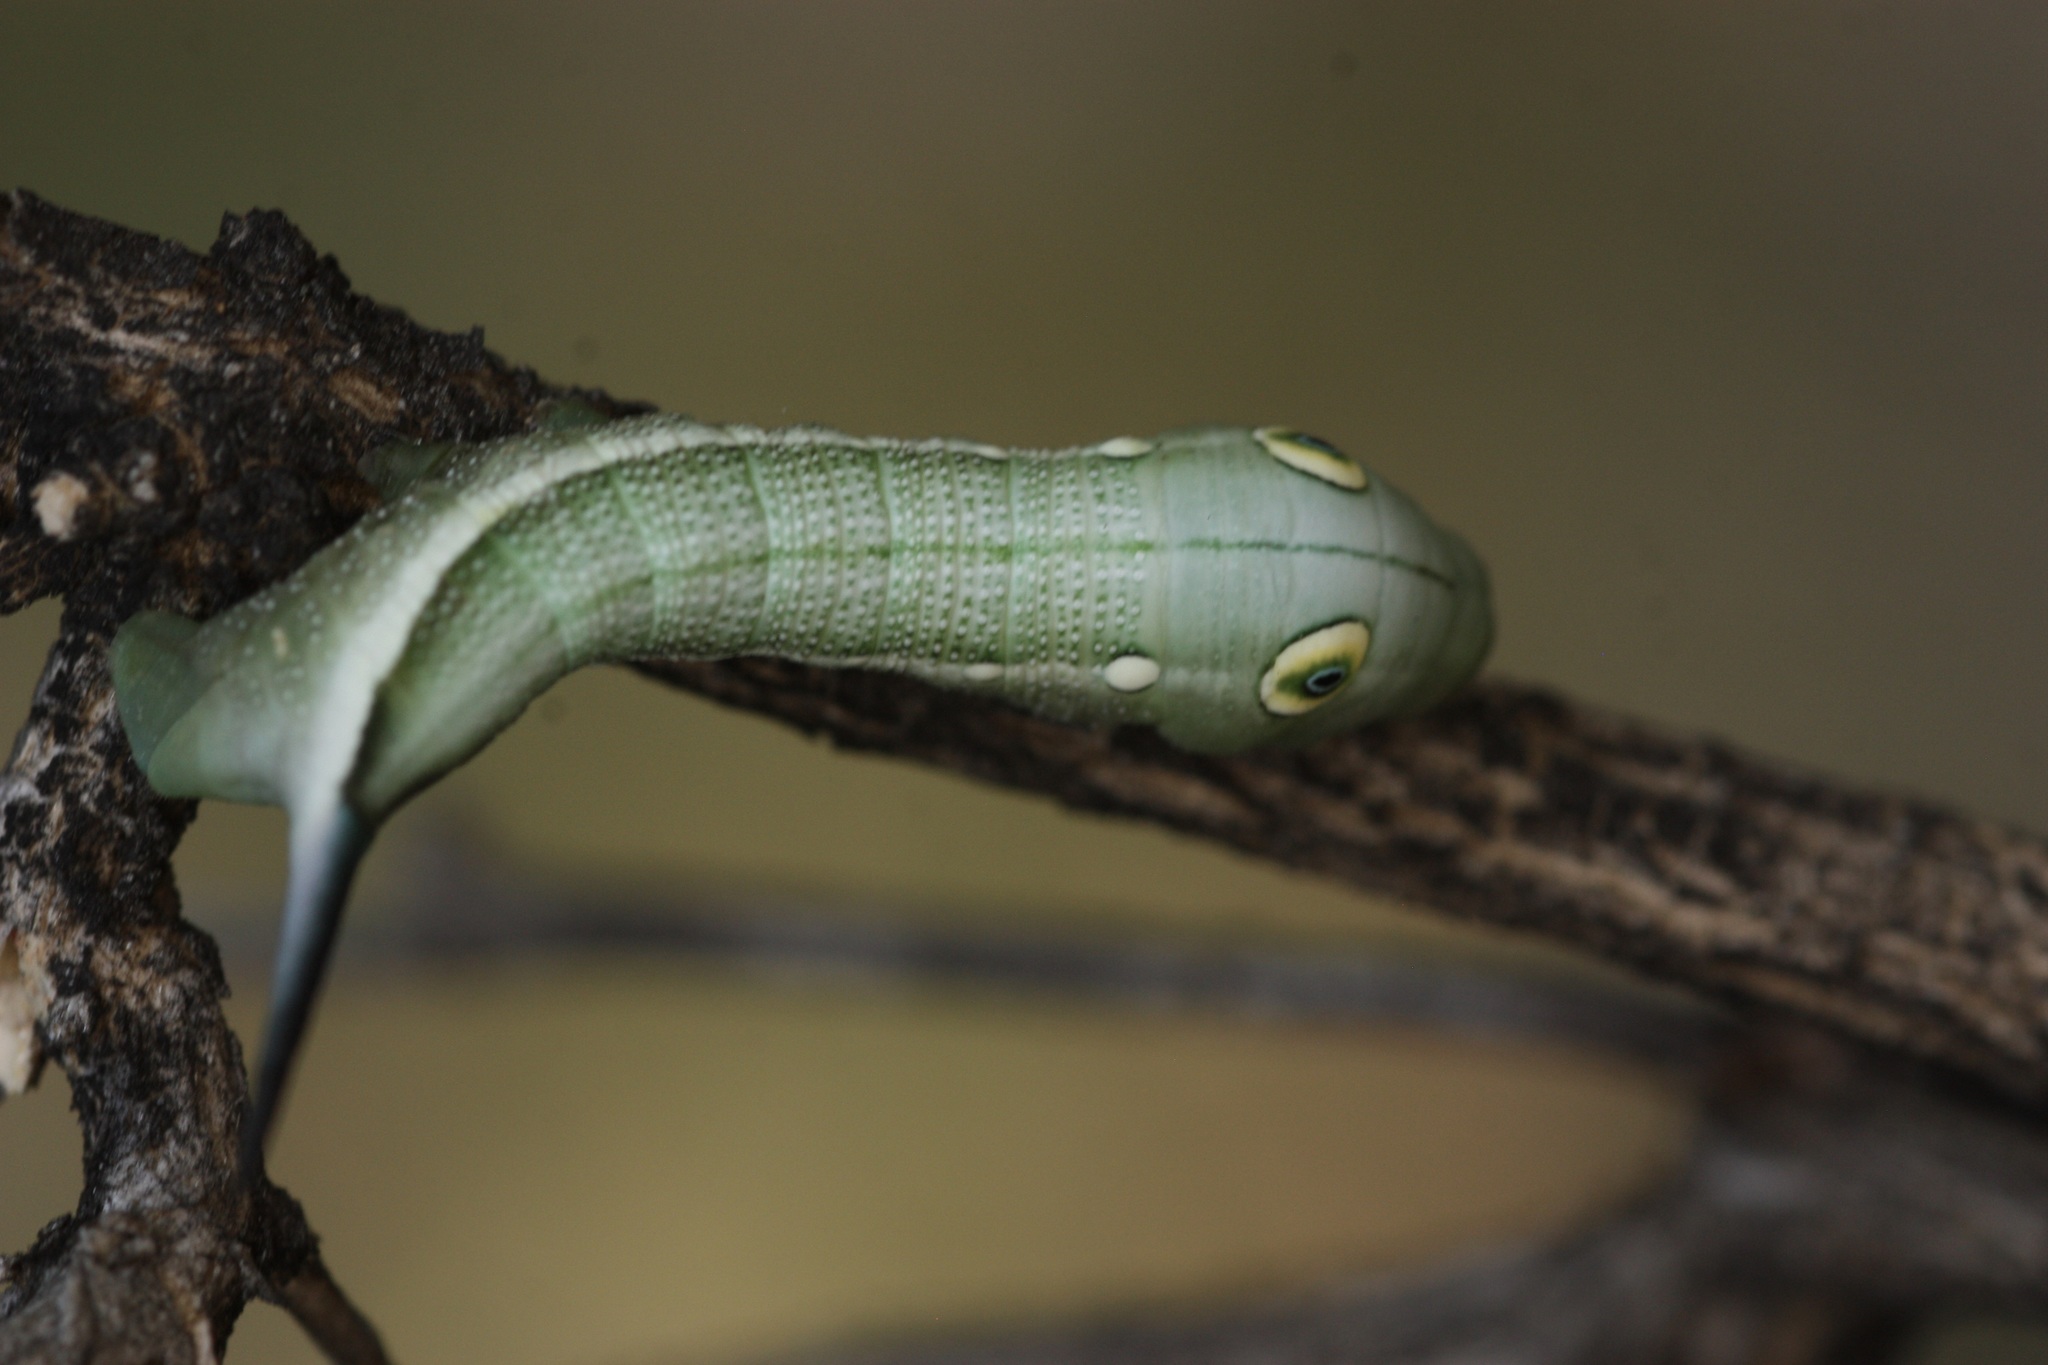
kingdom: Animalia
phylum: Arthropoda
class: Insecta
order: Lepidoptera
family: Sphingidae
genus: Xylophanes
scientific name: Xylophanes falco
